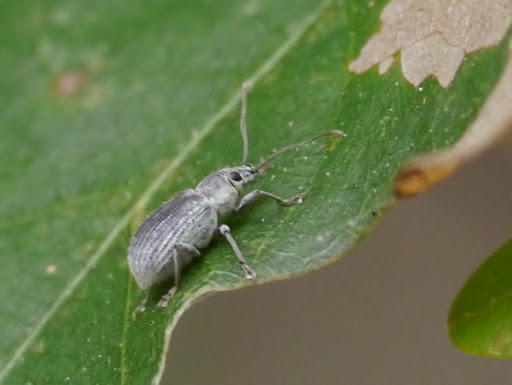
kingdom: Animalia
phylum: Arthropoda
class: Insecta
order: Coleoptera
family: Curculionidae
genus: Cyrtepistomus
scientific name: Cyrtepistomus castaneus
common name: Weevil
